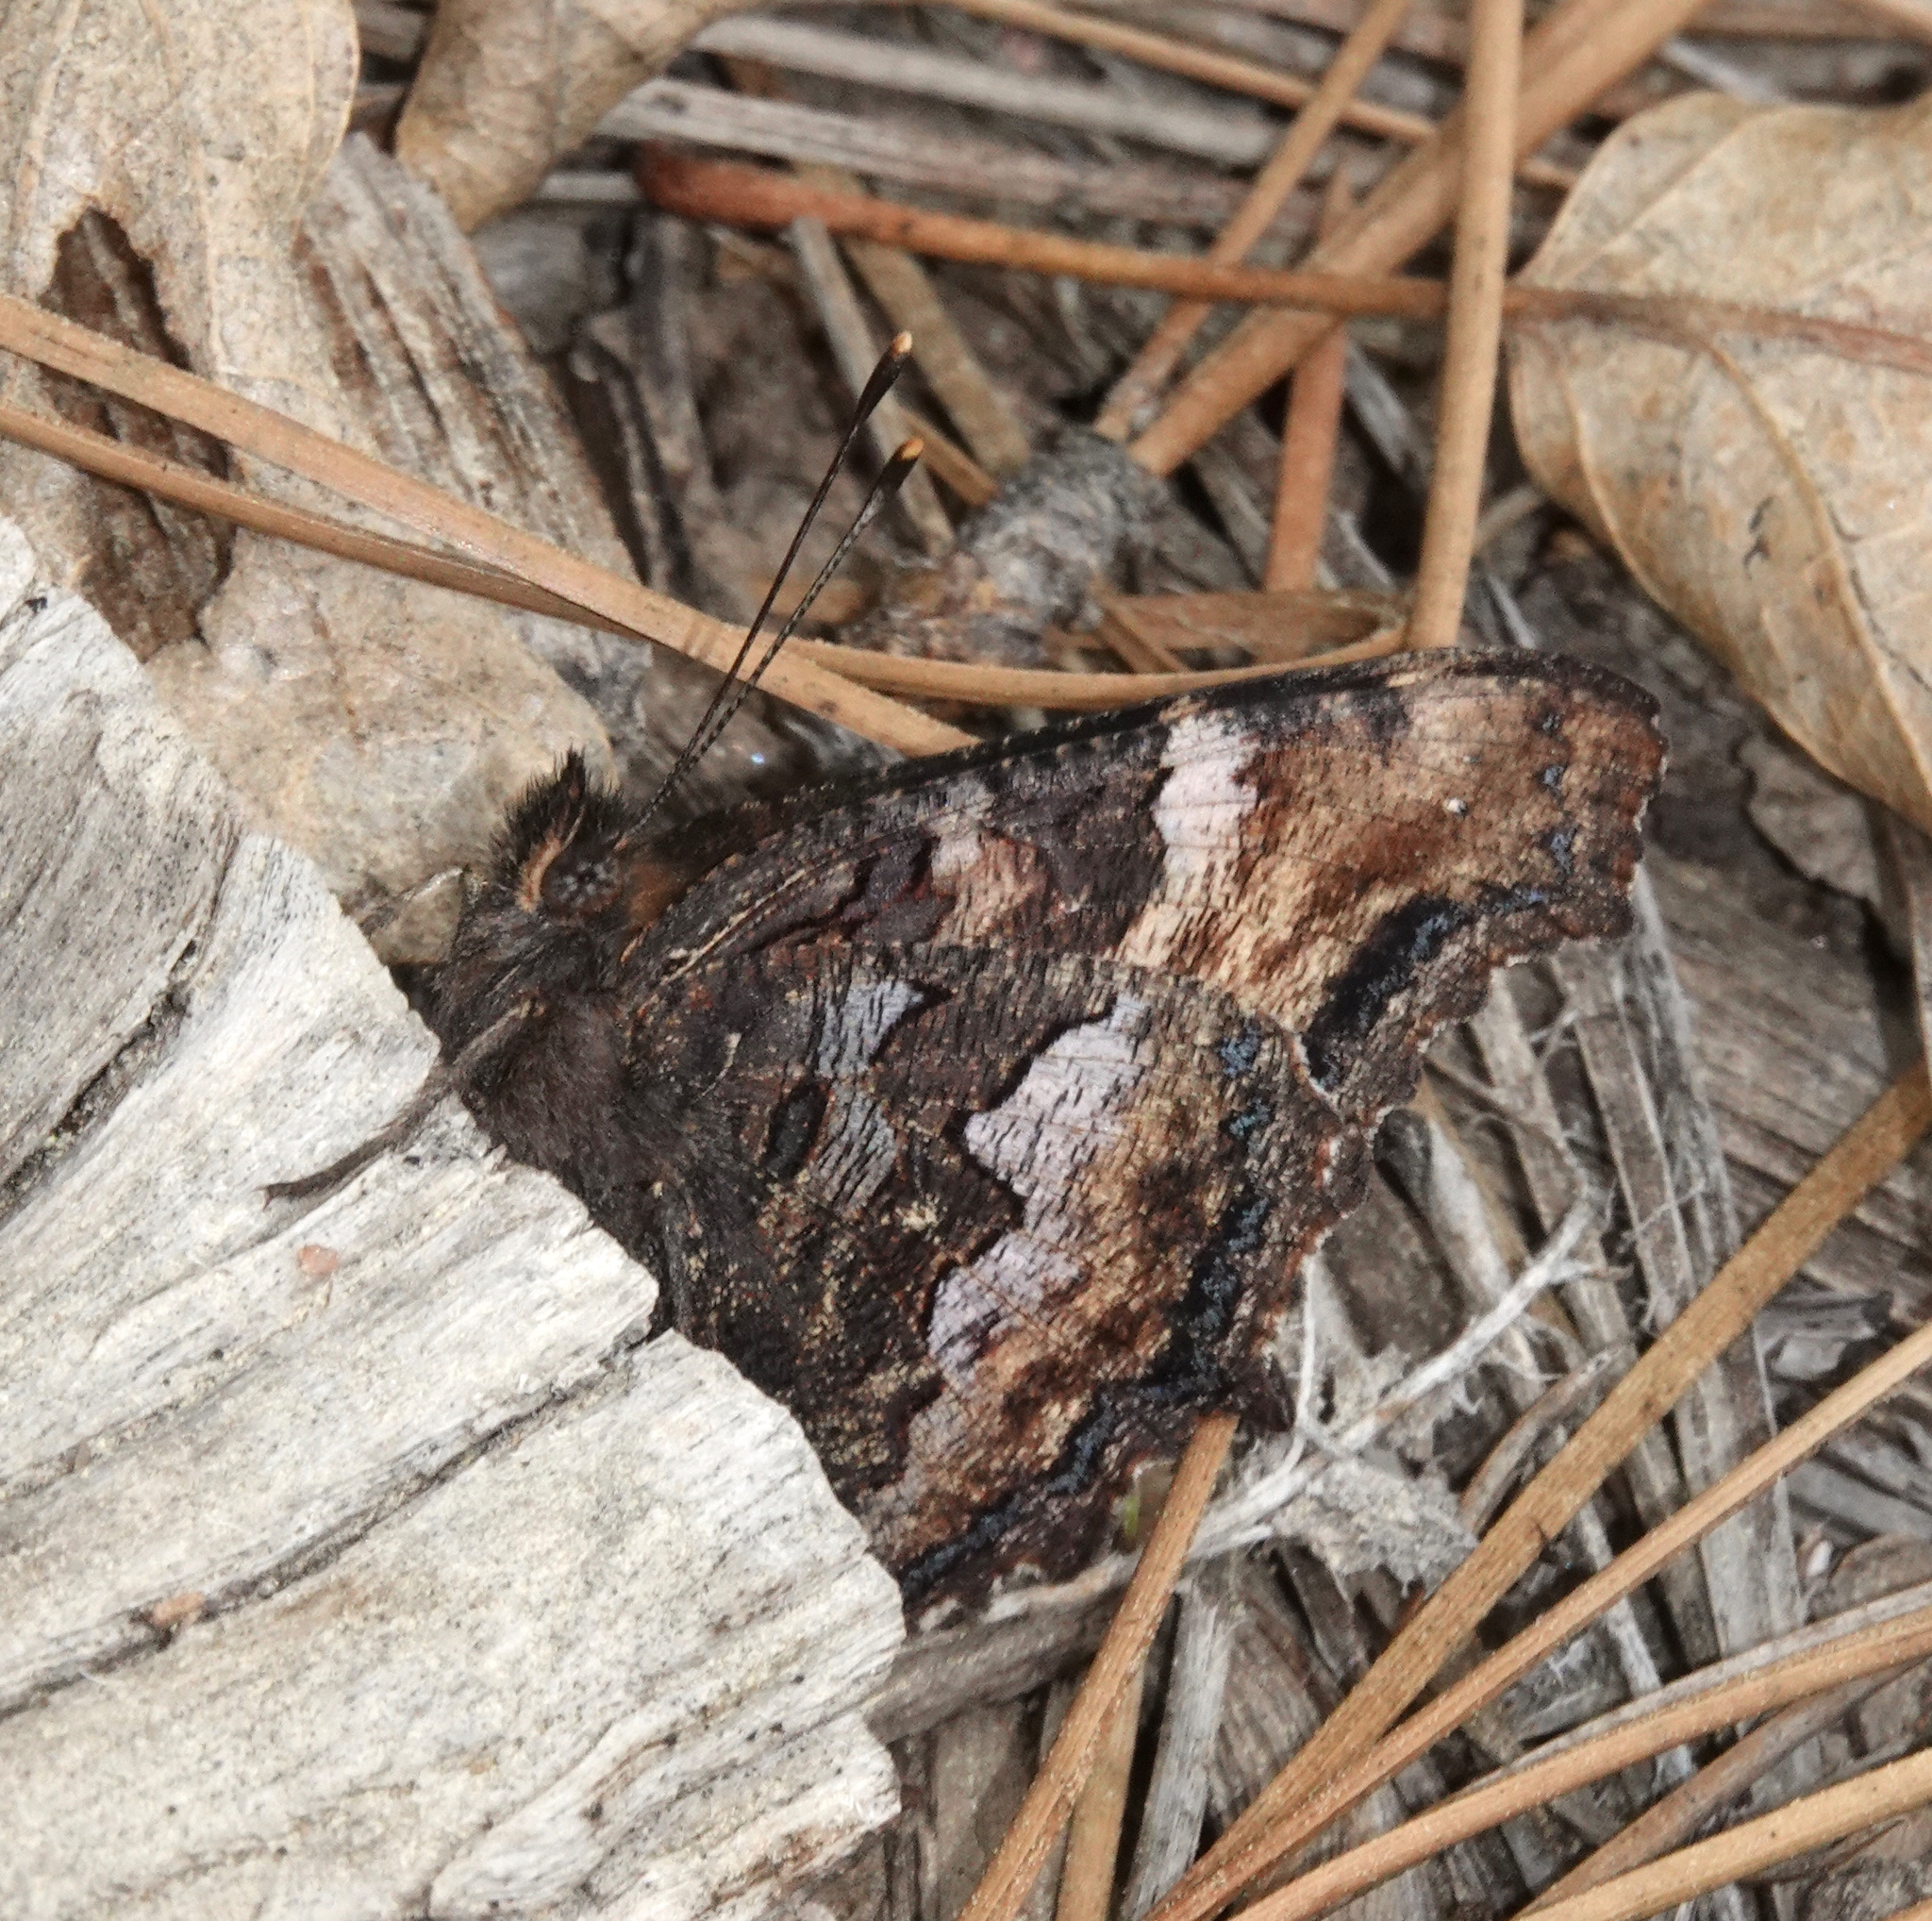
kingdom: Animalia
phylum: Arthropoda
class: Insecta
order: Lepidoptera
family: Nymphalidae
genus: Nymphalis
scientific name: Nymphalis californica
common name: California tortoiseshell
